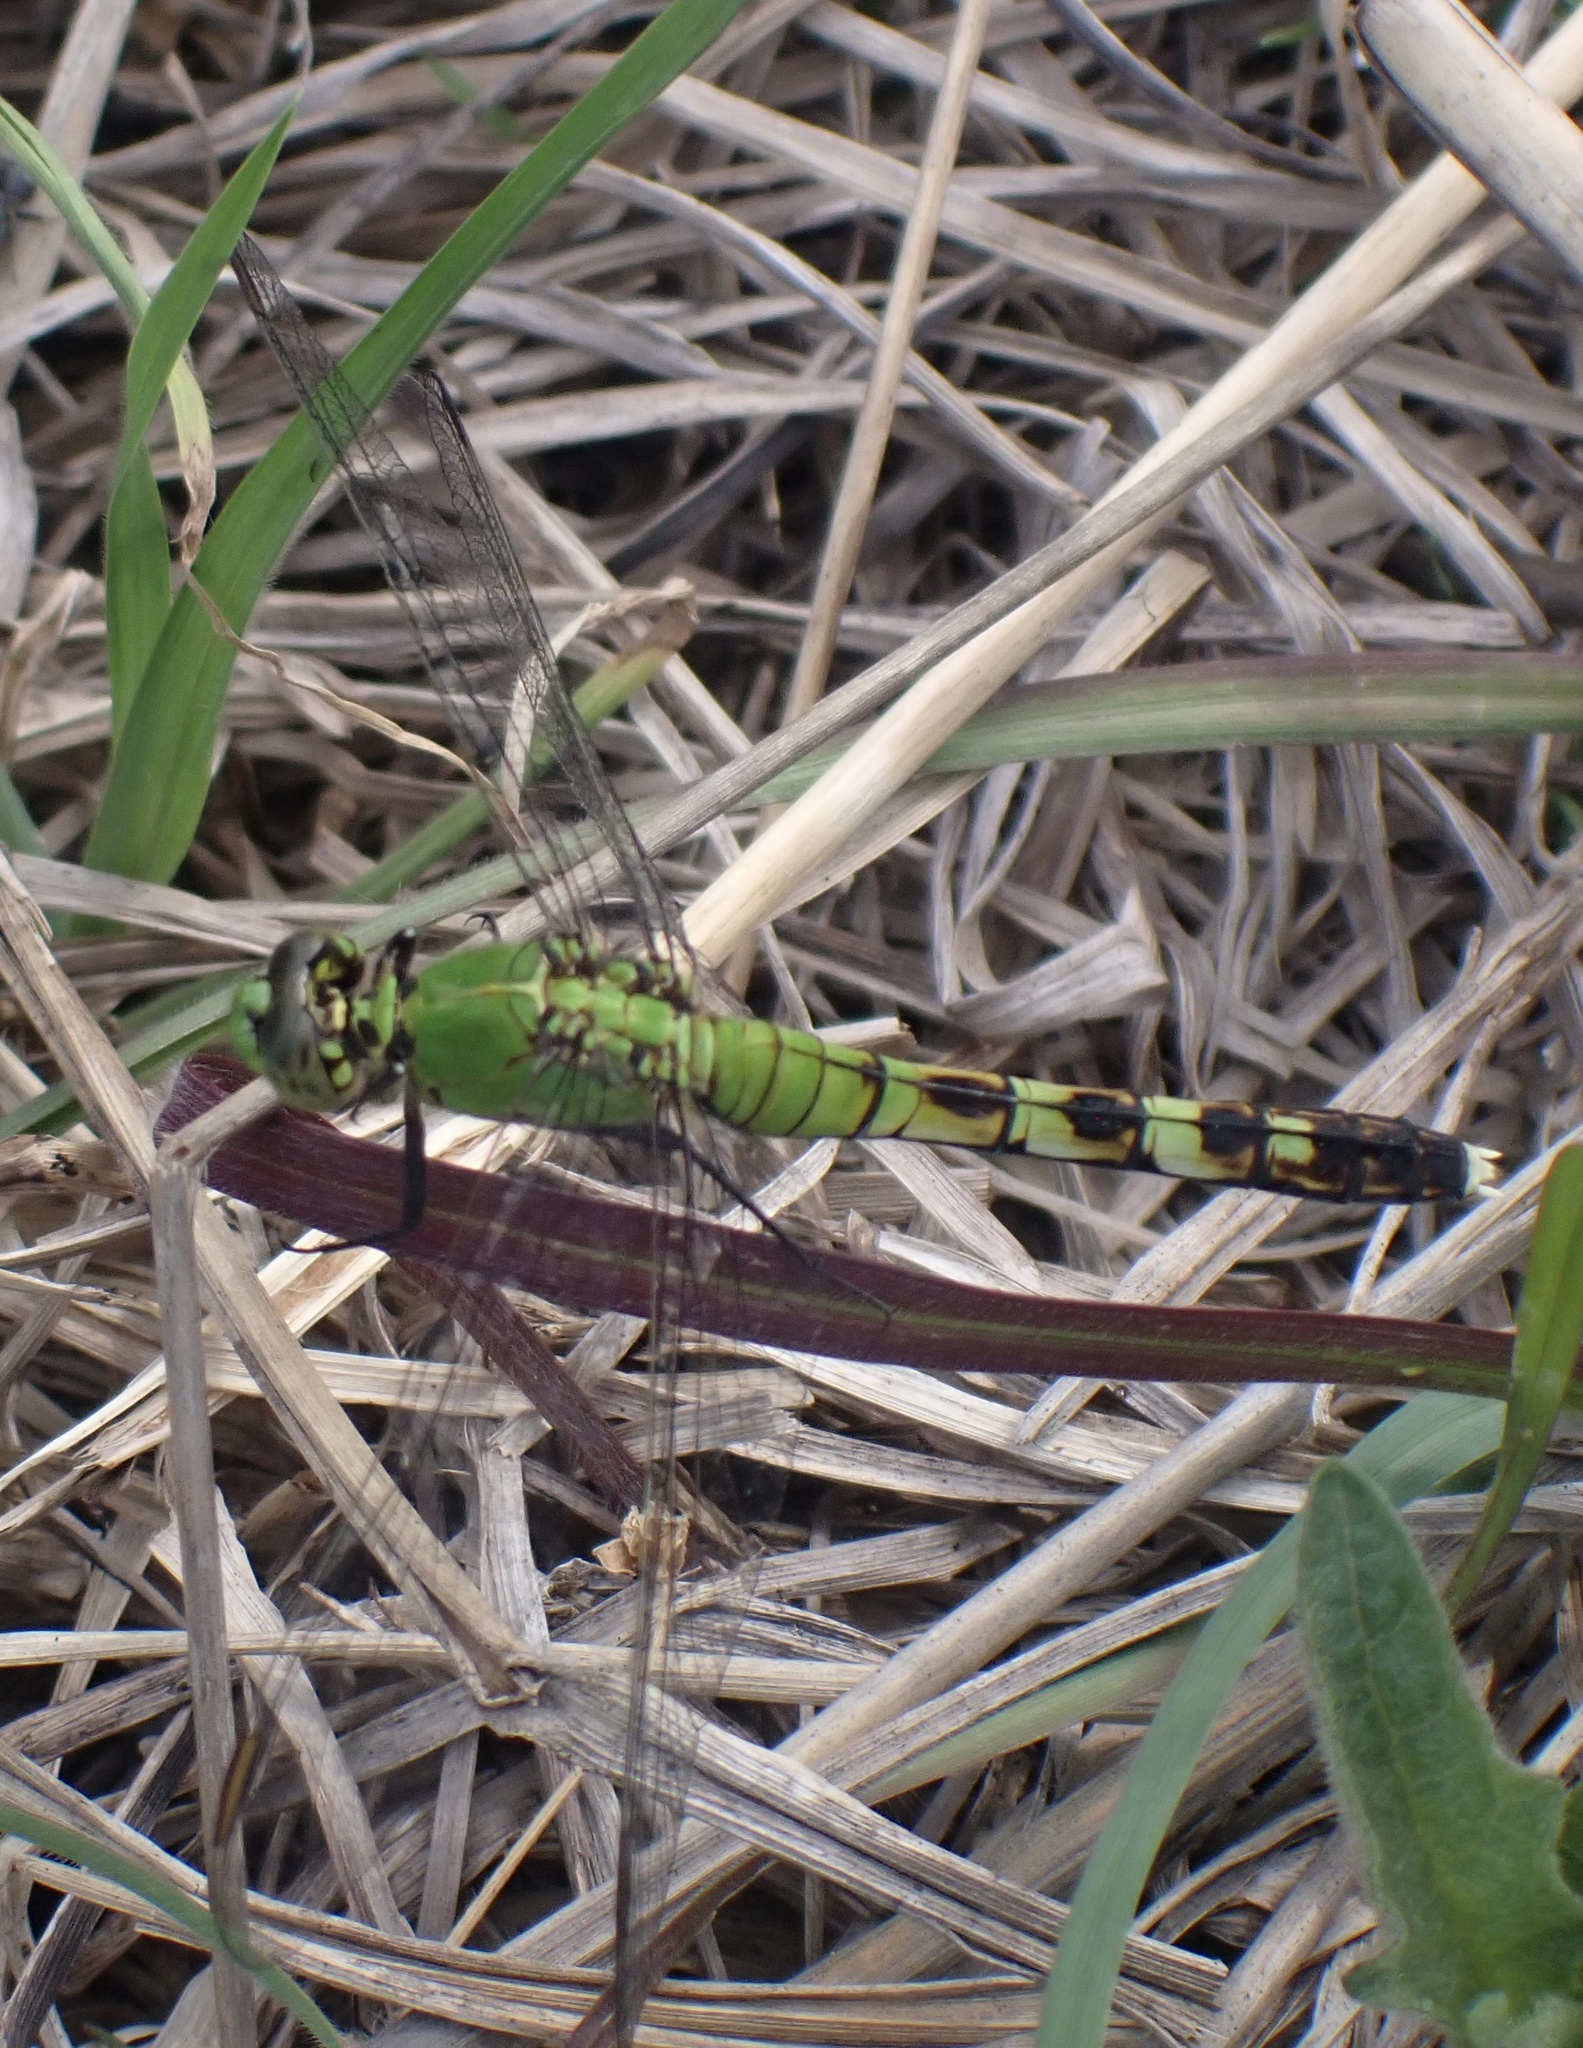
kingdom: Animalia
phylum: Arthropoda
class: Insecta
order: Odonata
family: Libellulidae
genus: Erythemis
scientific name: Erythemis simplicicollis
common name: Eastern pondhawk
